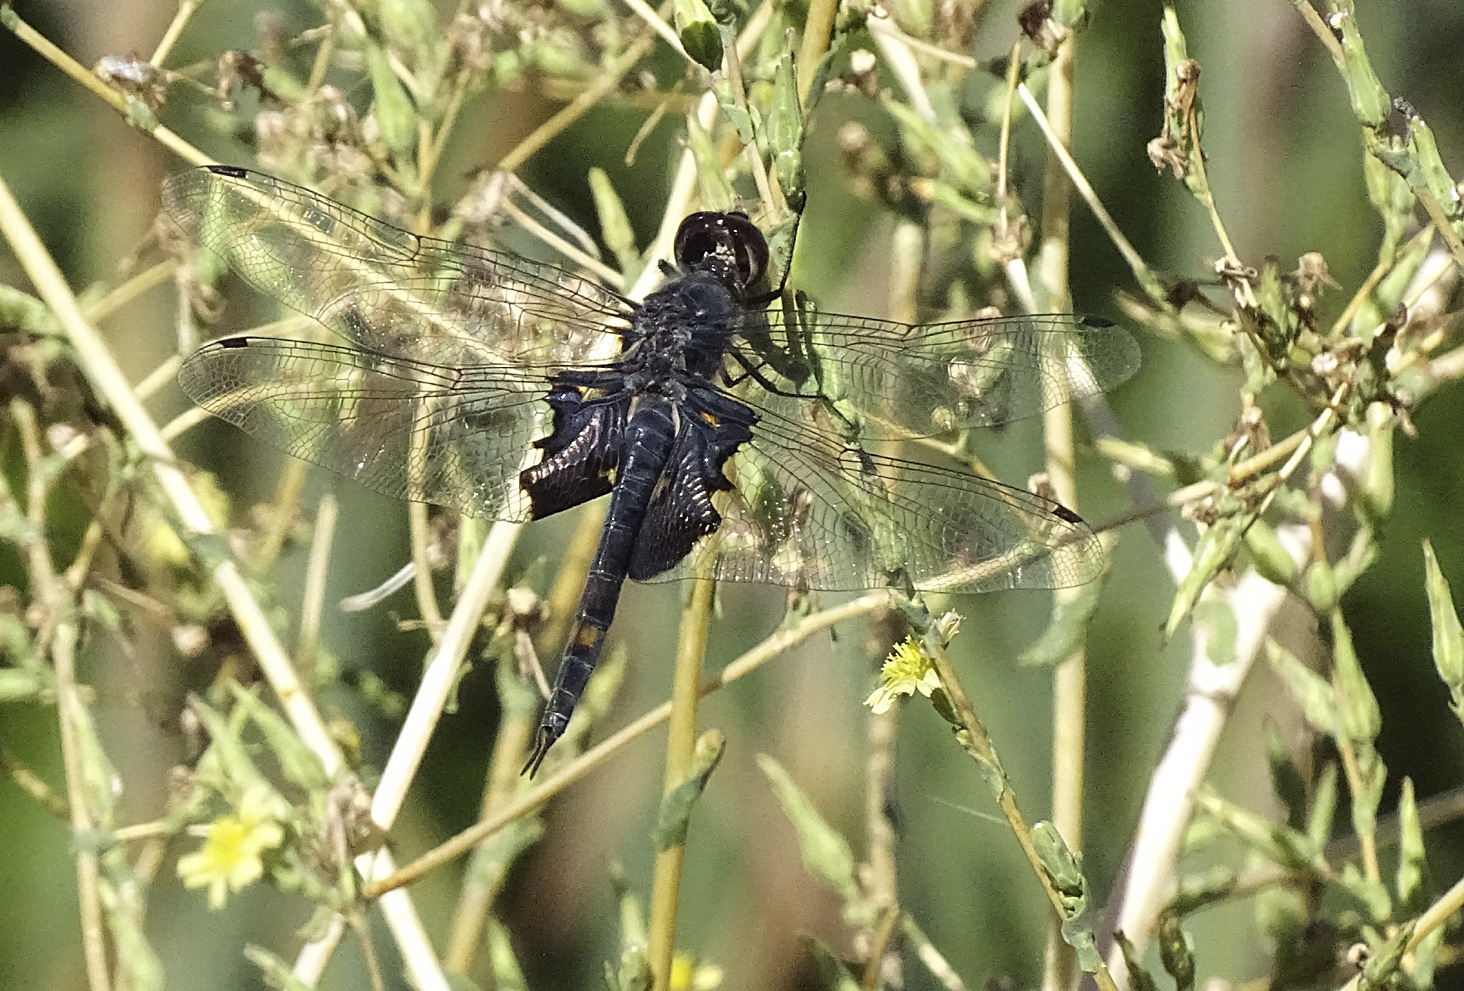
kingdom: Animalia
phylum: Arthropoda
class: Insecta
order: Odonata
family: Libellulidae
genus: Tramea
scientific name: Tramea lacerata
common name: Black saddlebags
